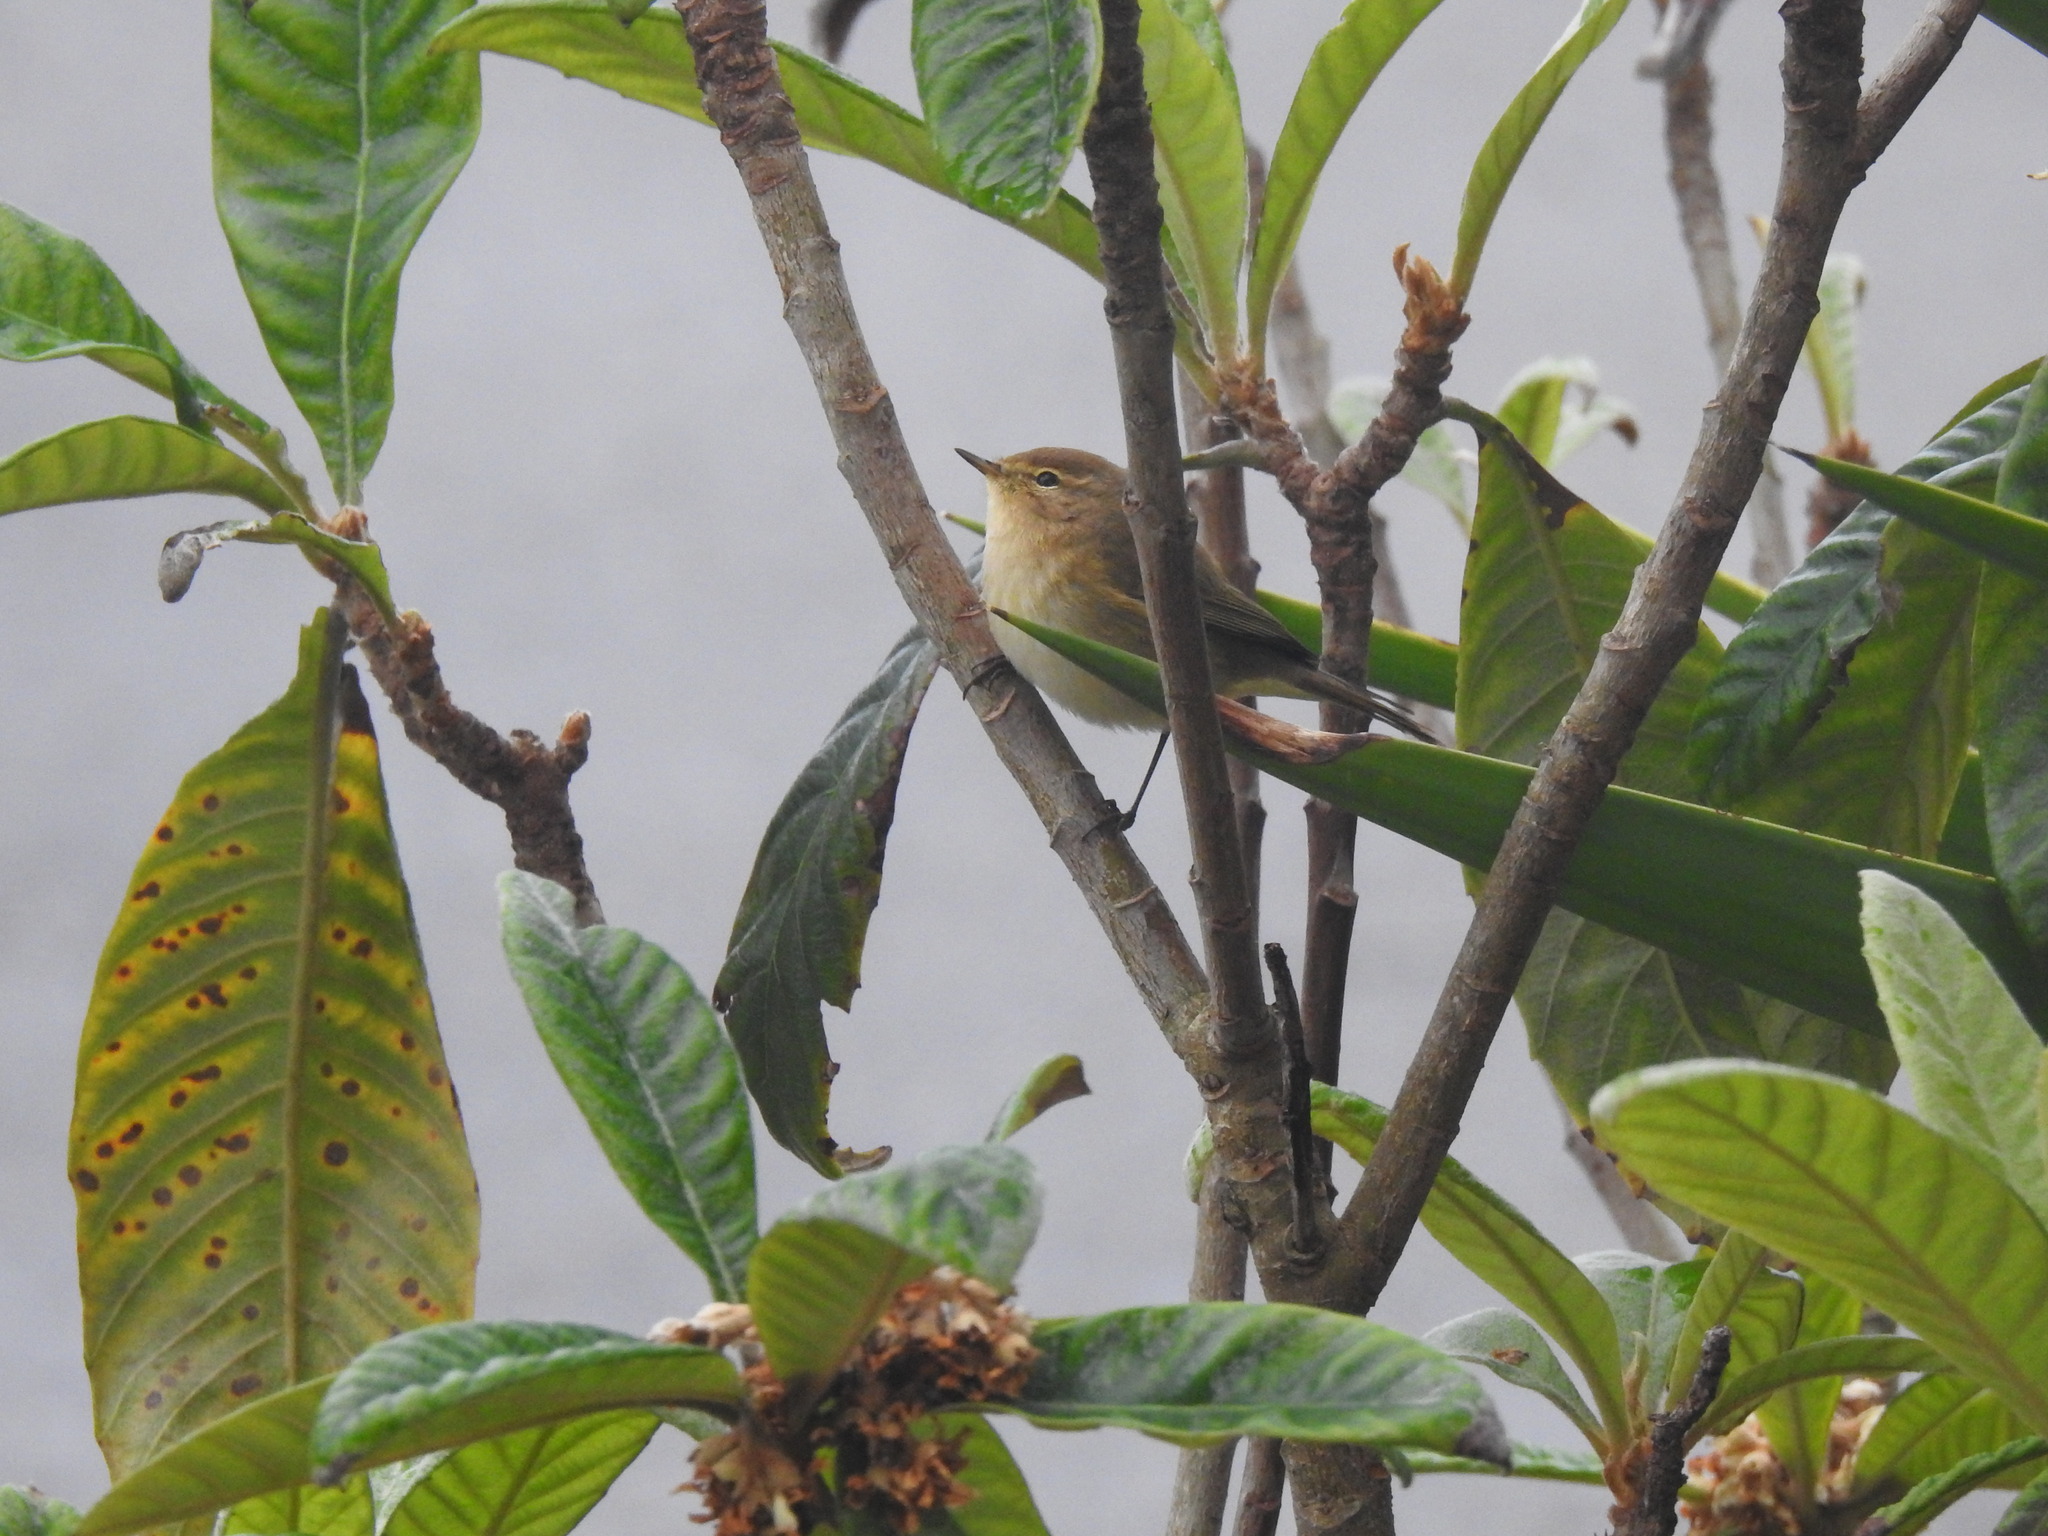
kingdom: Animalia
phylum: Chordata
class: Aves
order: Passeriformes
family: Phylloscopidae
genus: Phylloscopus
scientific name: Phylloscopus collybita
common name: Common chiffchaff
